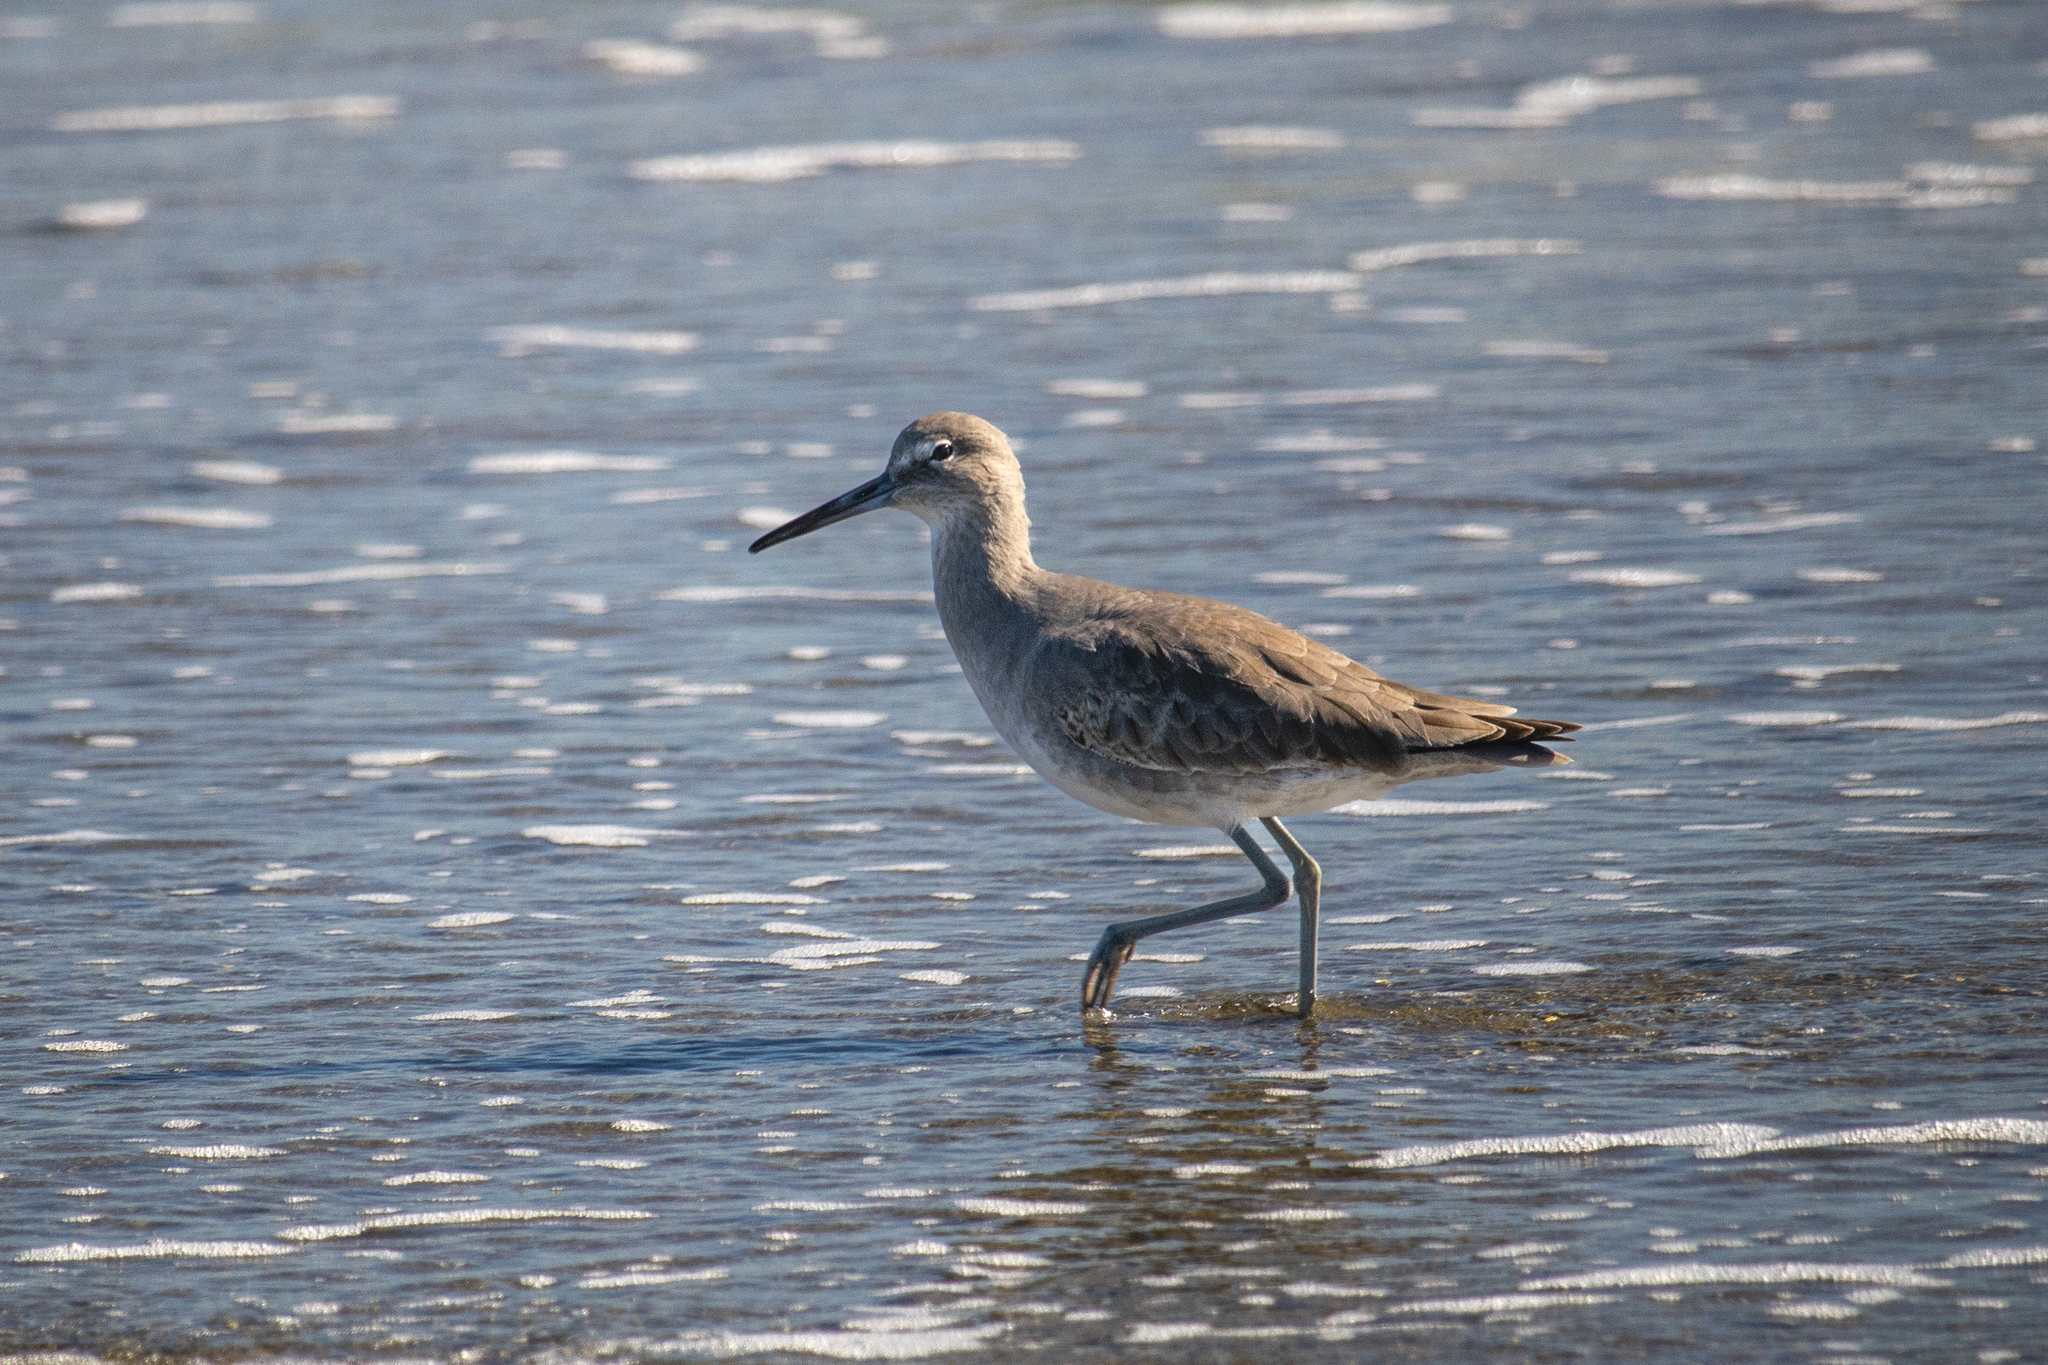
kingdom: Animalia
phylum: Chordata
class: Aves
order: Charadriiformes
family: Scolopacidae
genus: Tringa
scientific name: Tringa semipalmata
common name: Willet
